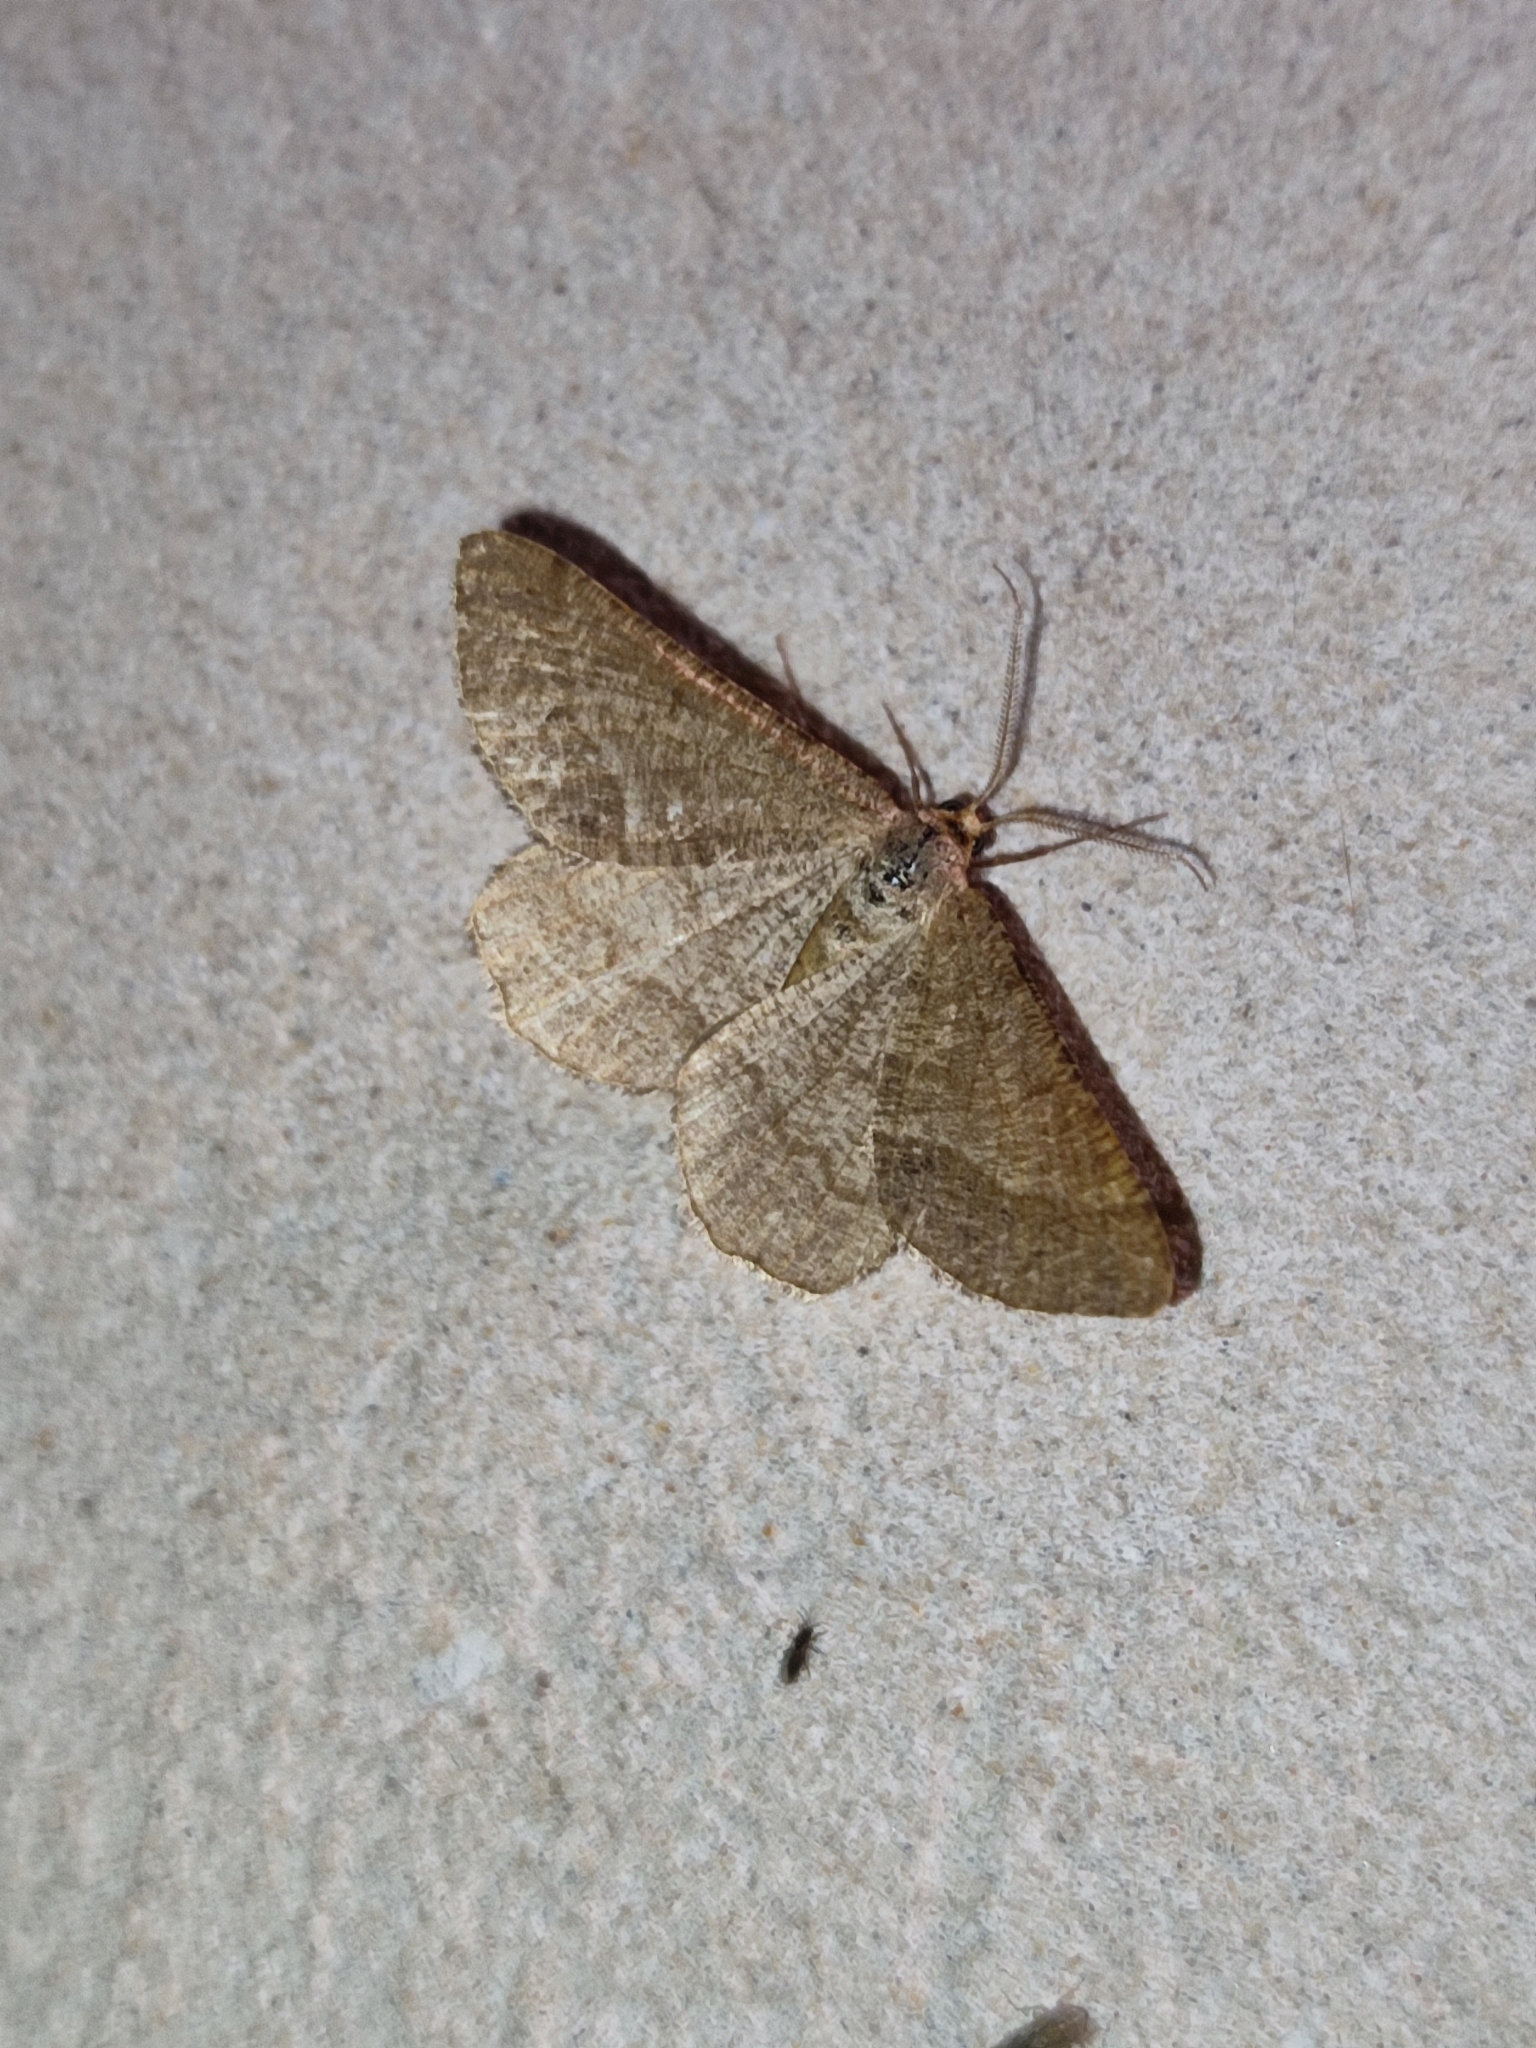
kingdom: Animalia
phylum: Arthropoda
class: Insecta
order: Lepidoptera
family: Geometridae
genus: Tephrina
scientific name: Tephrina murinaria
